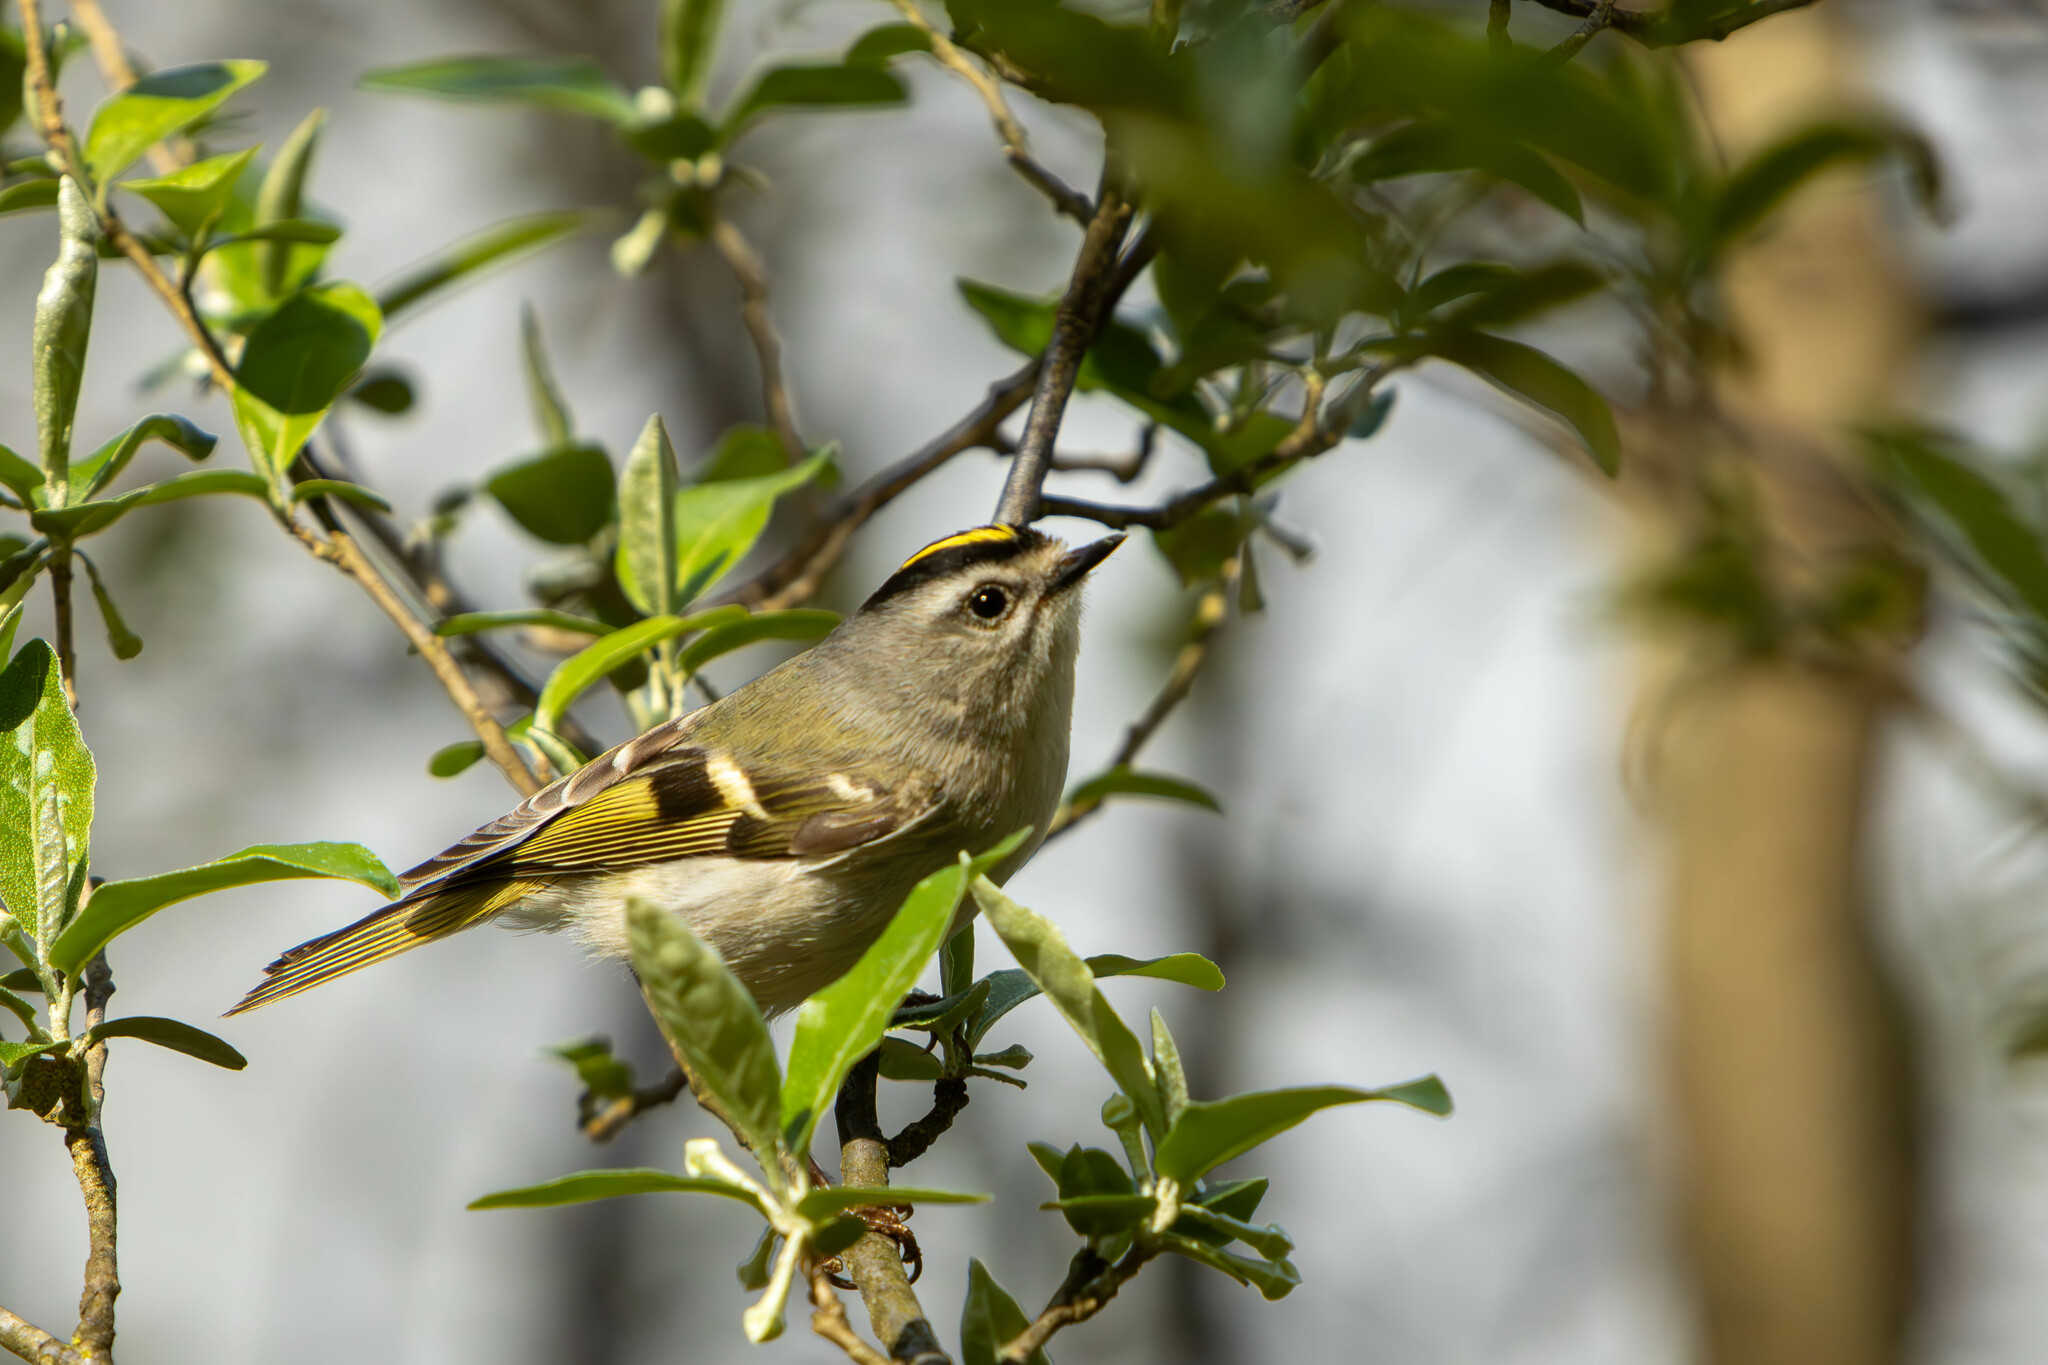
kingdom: Animalia
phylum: Chordata
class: Aves
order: Passeriformes
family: Regulidae
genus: Regulus
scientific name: Regulus satrapa
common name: Golden-crowned kinglet
